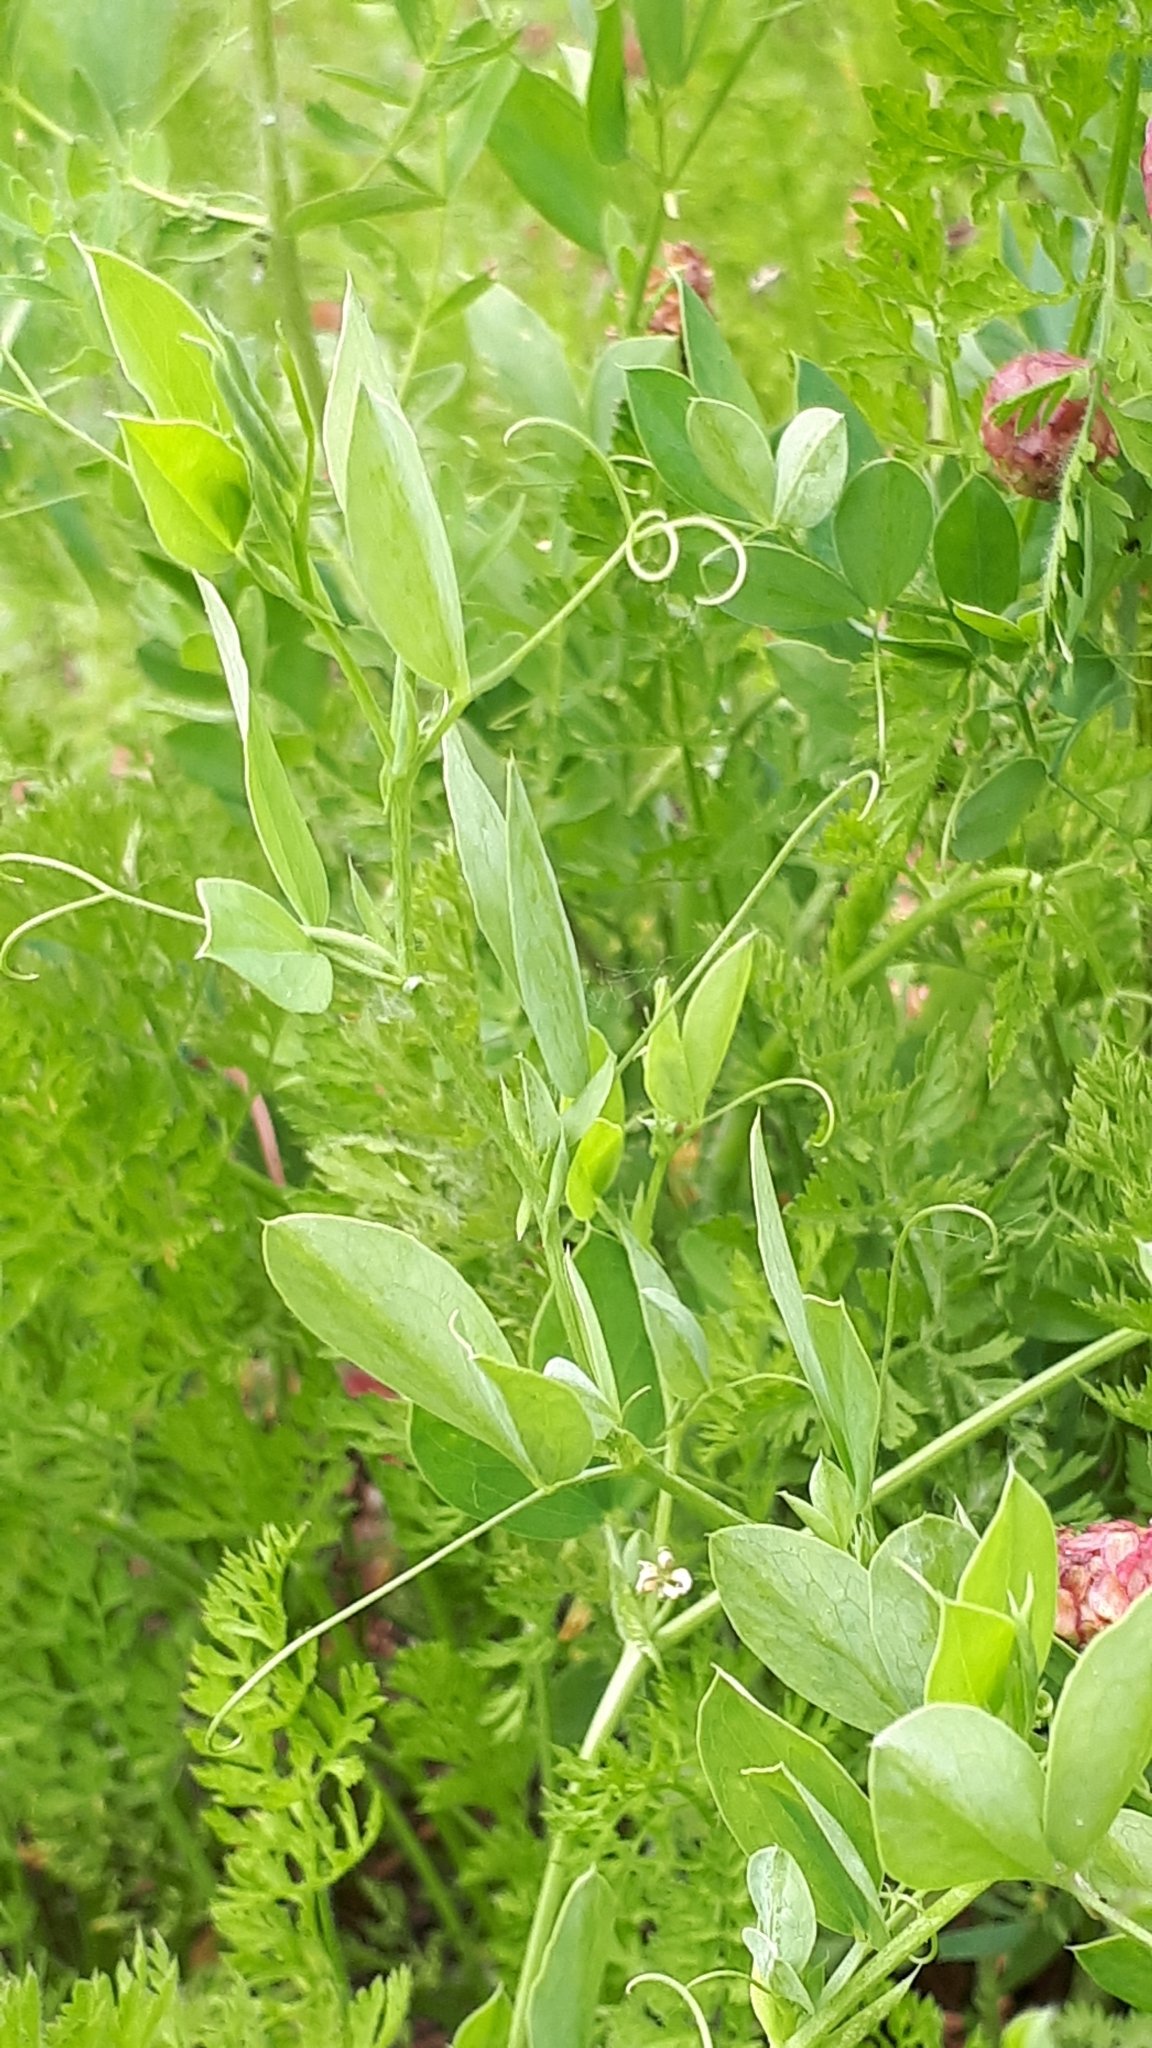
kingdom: Plantae
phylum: Tracheophyta
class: Magnoliopsida
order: Fabales
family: Fabaceae
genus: Lathyrus
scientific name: Lathyrus tuberosus
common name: Tuberous pea
